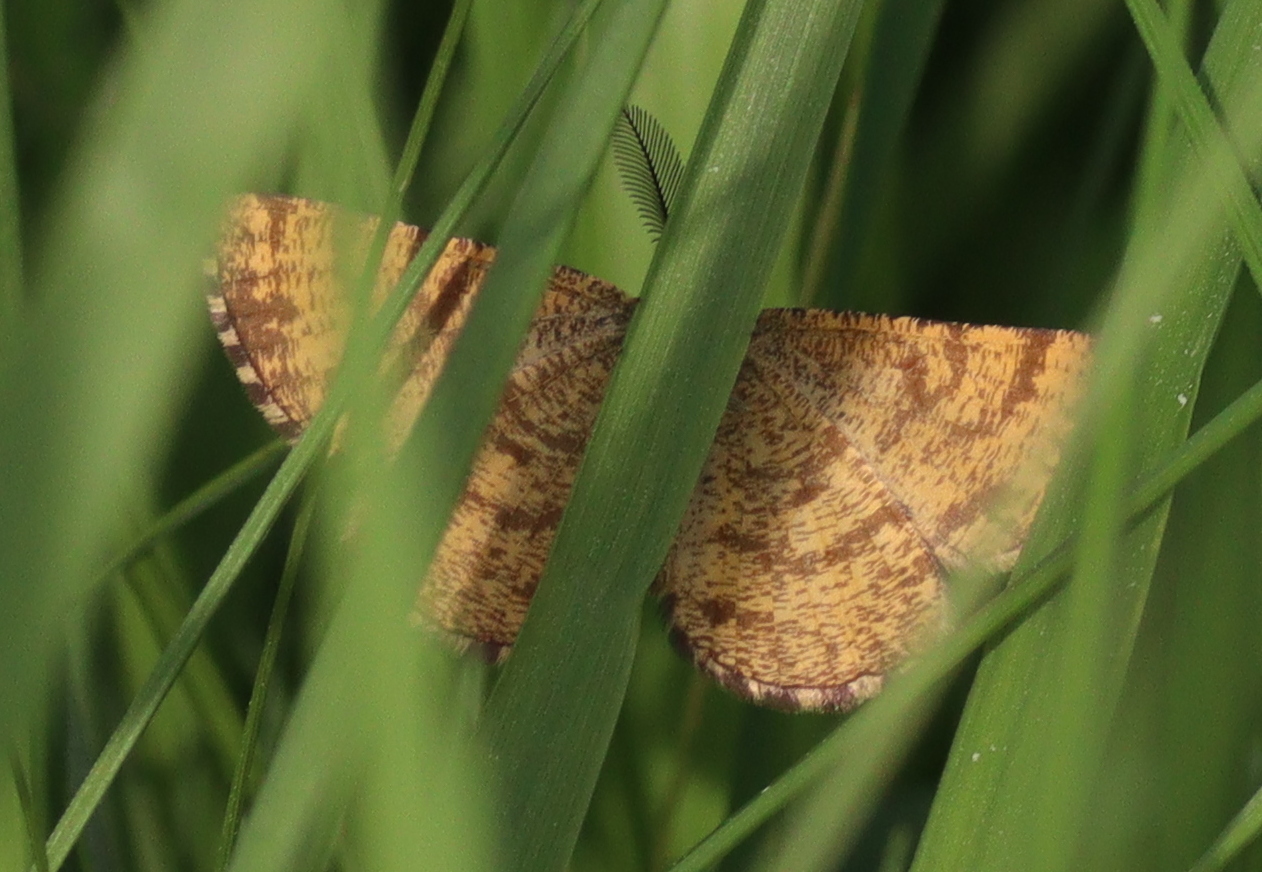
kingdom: Animalia
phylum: Arthropoda
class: Insecta
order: Lepidoptera
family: Geometridae
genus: Ematurga
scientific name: Ematurga atomaria
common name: Common heath
